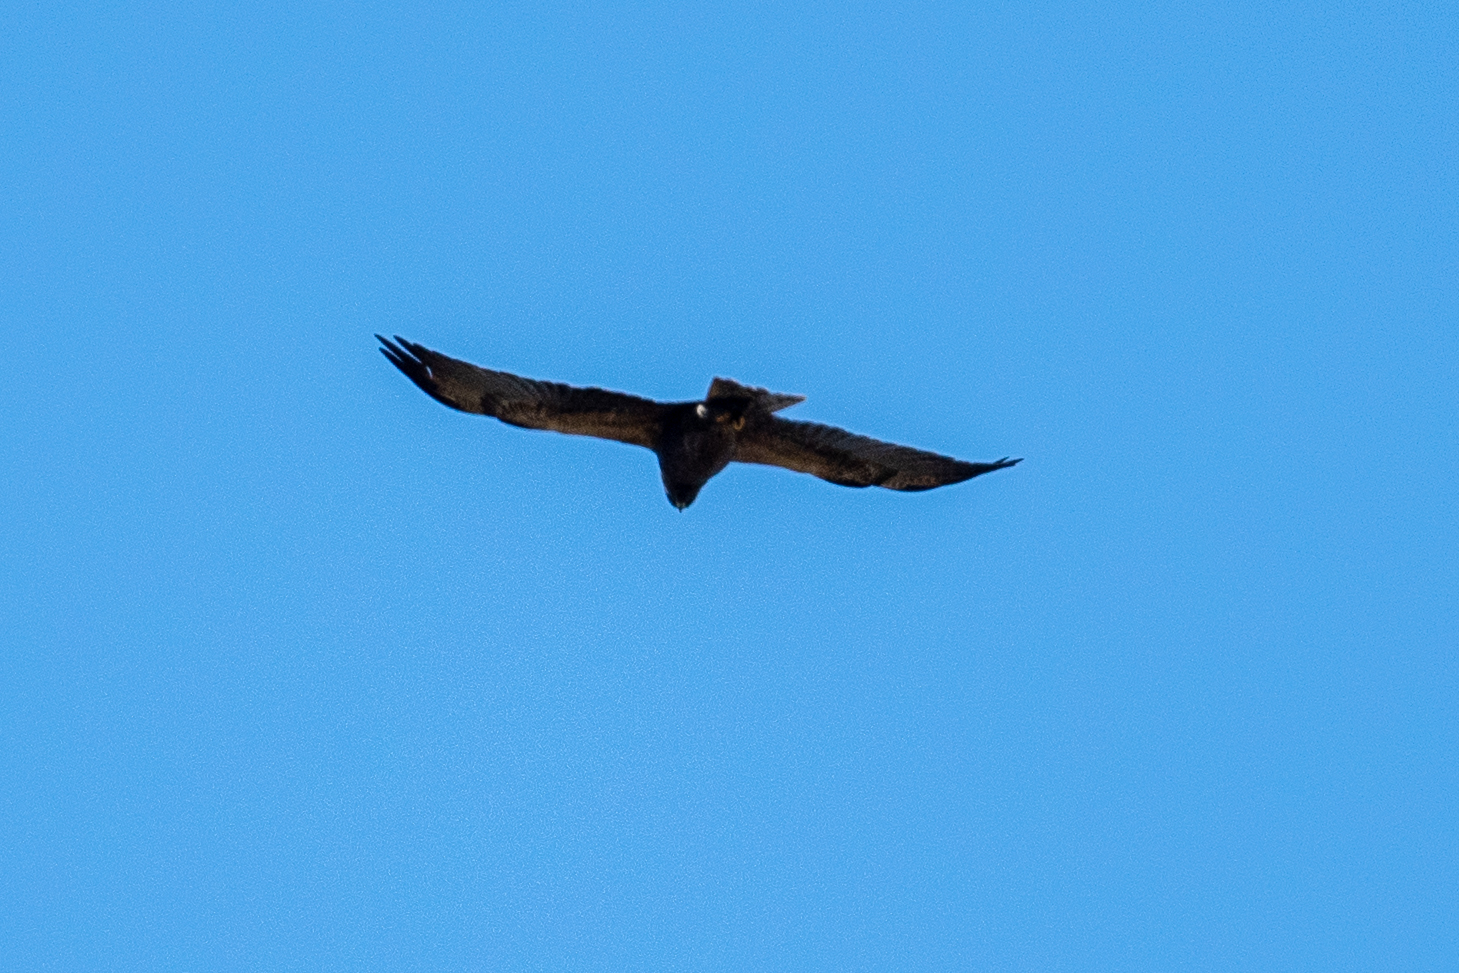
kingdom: Animalia
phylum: Chordata
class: Aves
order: Accipitriformes
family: Accipitridae
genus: Buteo
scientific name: Buteo swainsoni
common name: Swainson's hawk
